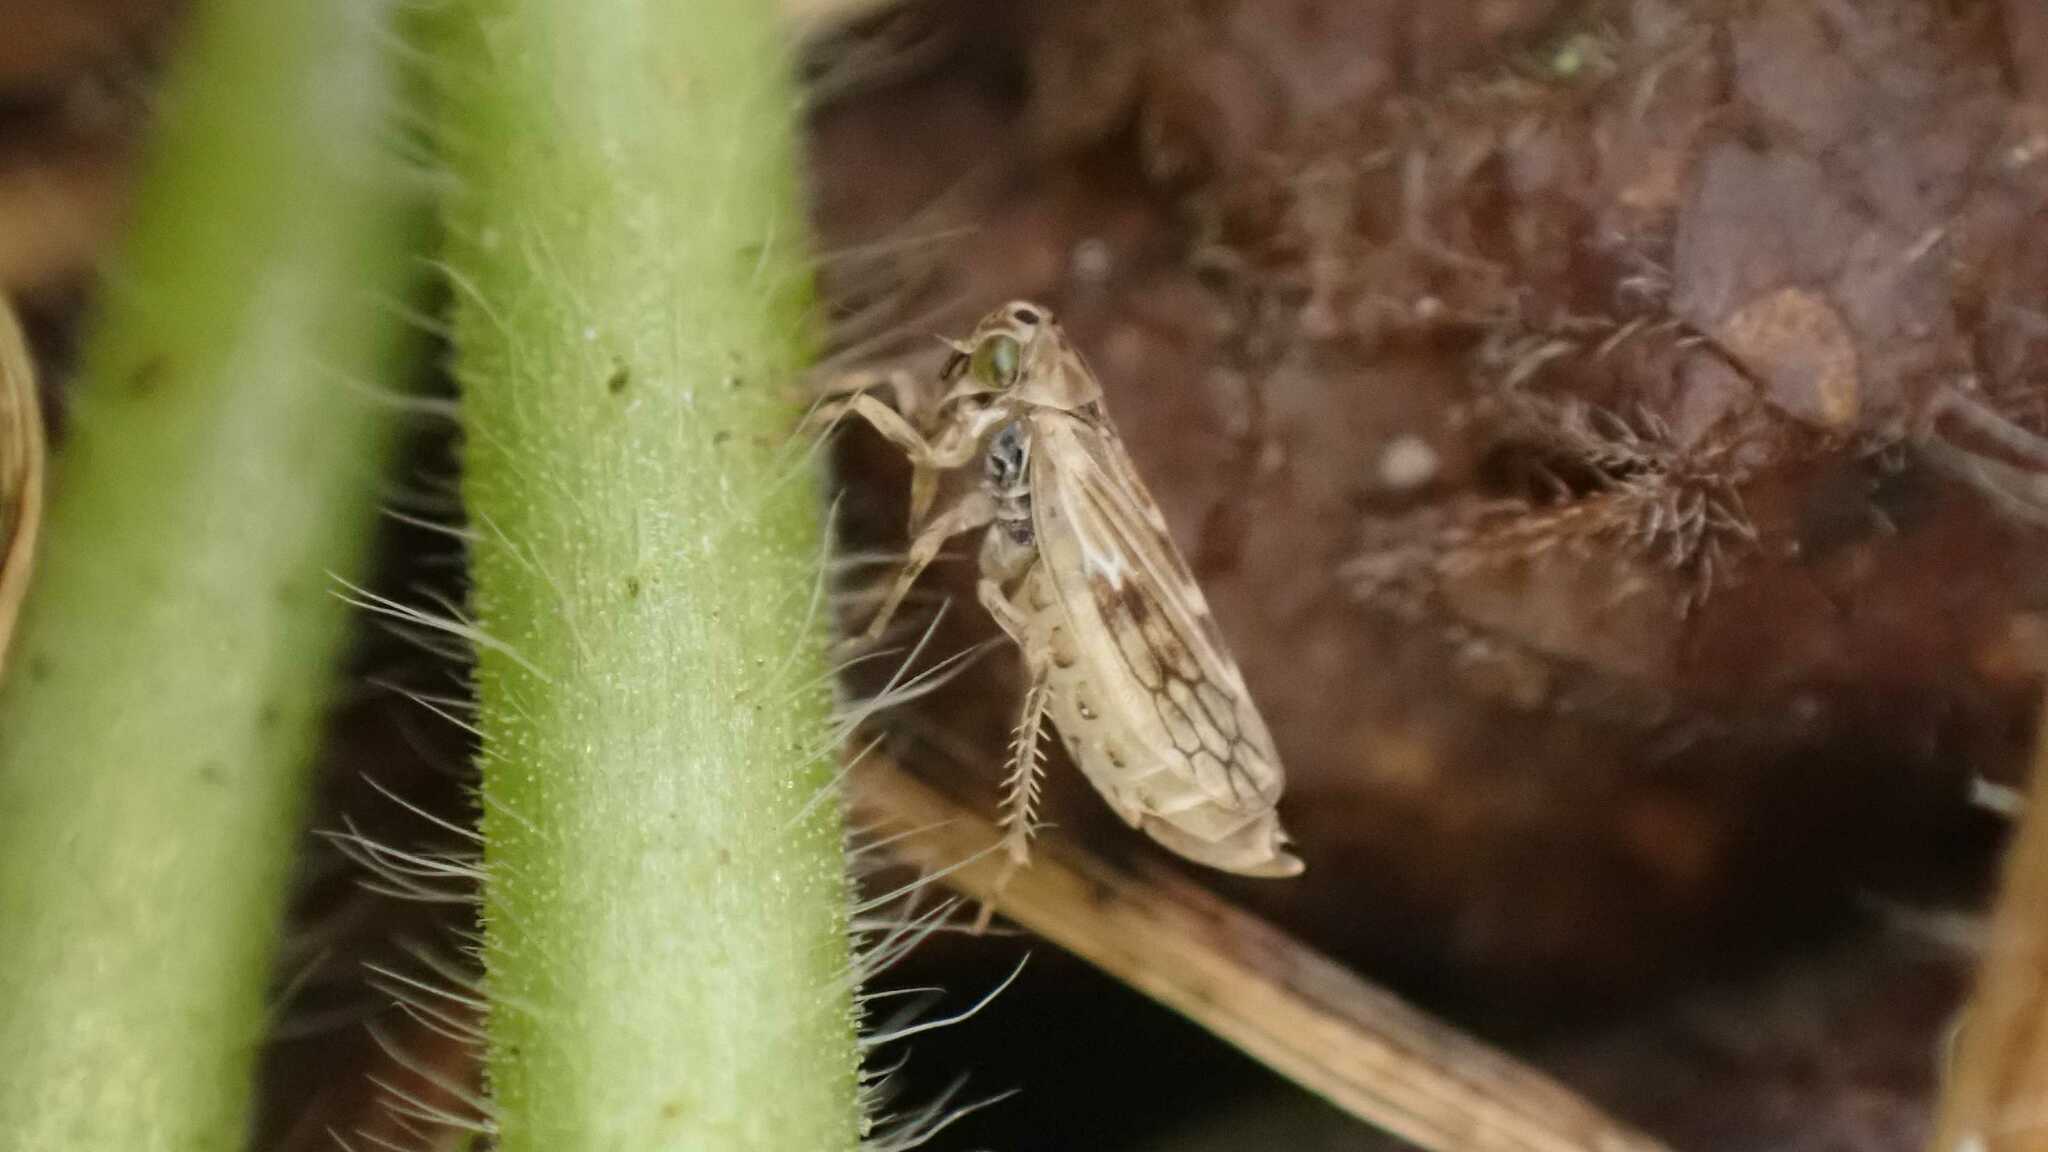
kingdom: Animalia
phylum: Arthropoda
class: Insecta
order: Hemiptera
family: Cicadellidae
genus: Agallia
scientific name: Agallia consobrina
